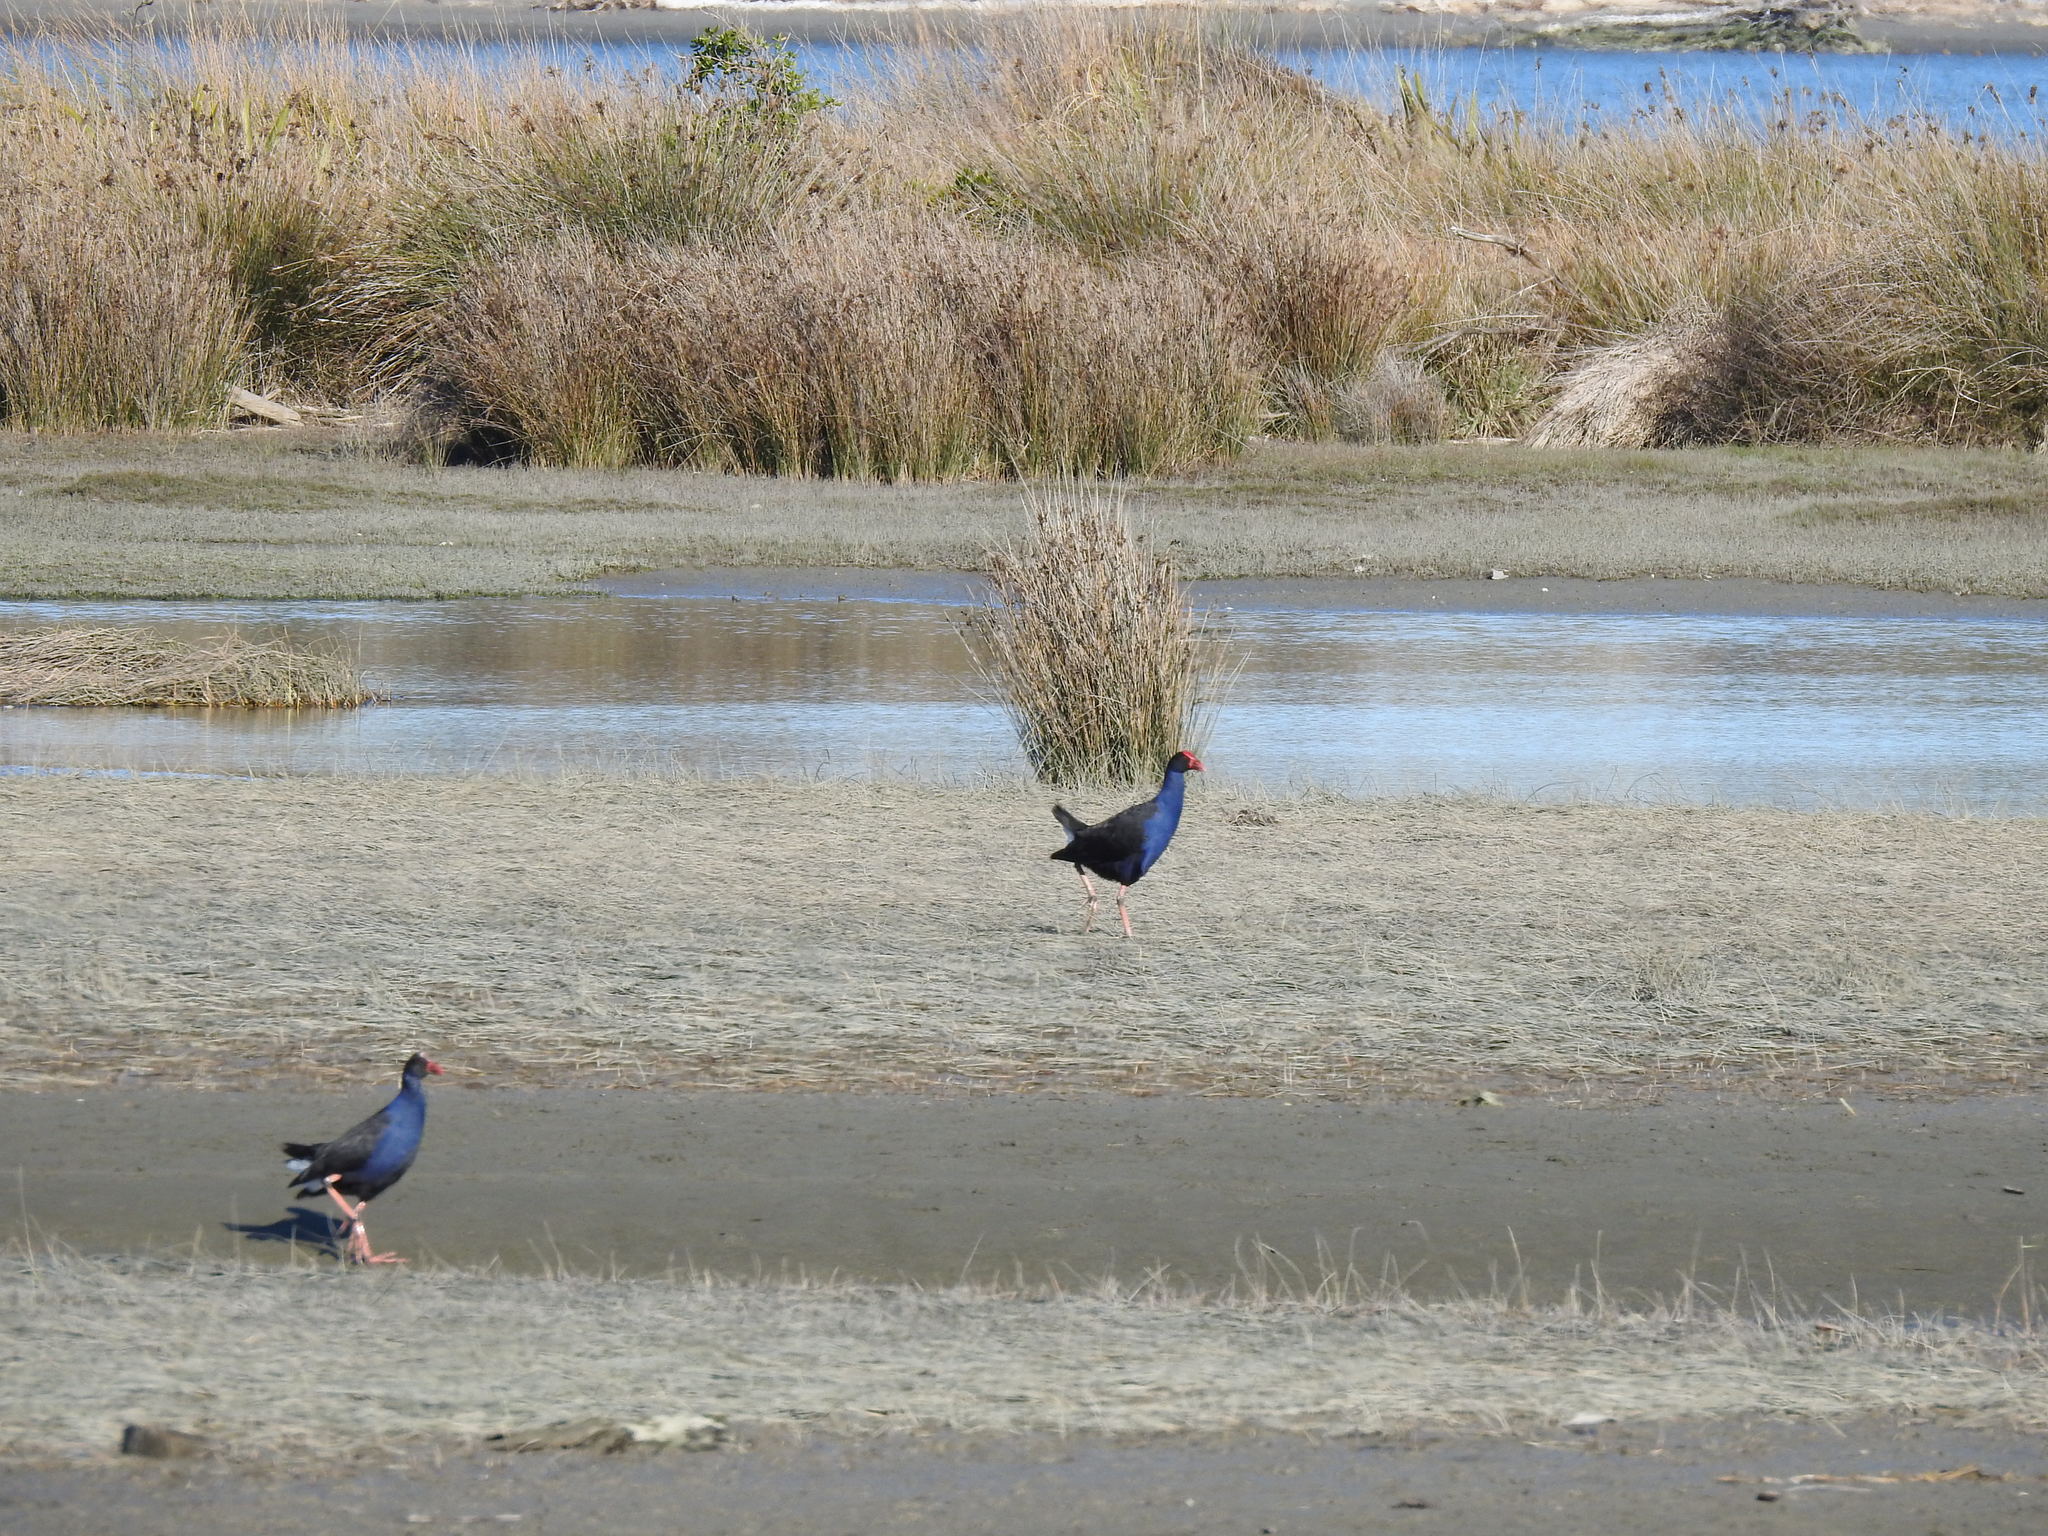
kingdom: Animalia
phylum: Chordata
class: Aves
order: Gruiformes
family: Rallidae
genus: Porphyrio
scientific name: Porphyrio melanotus
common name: Australasian swamphen
